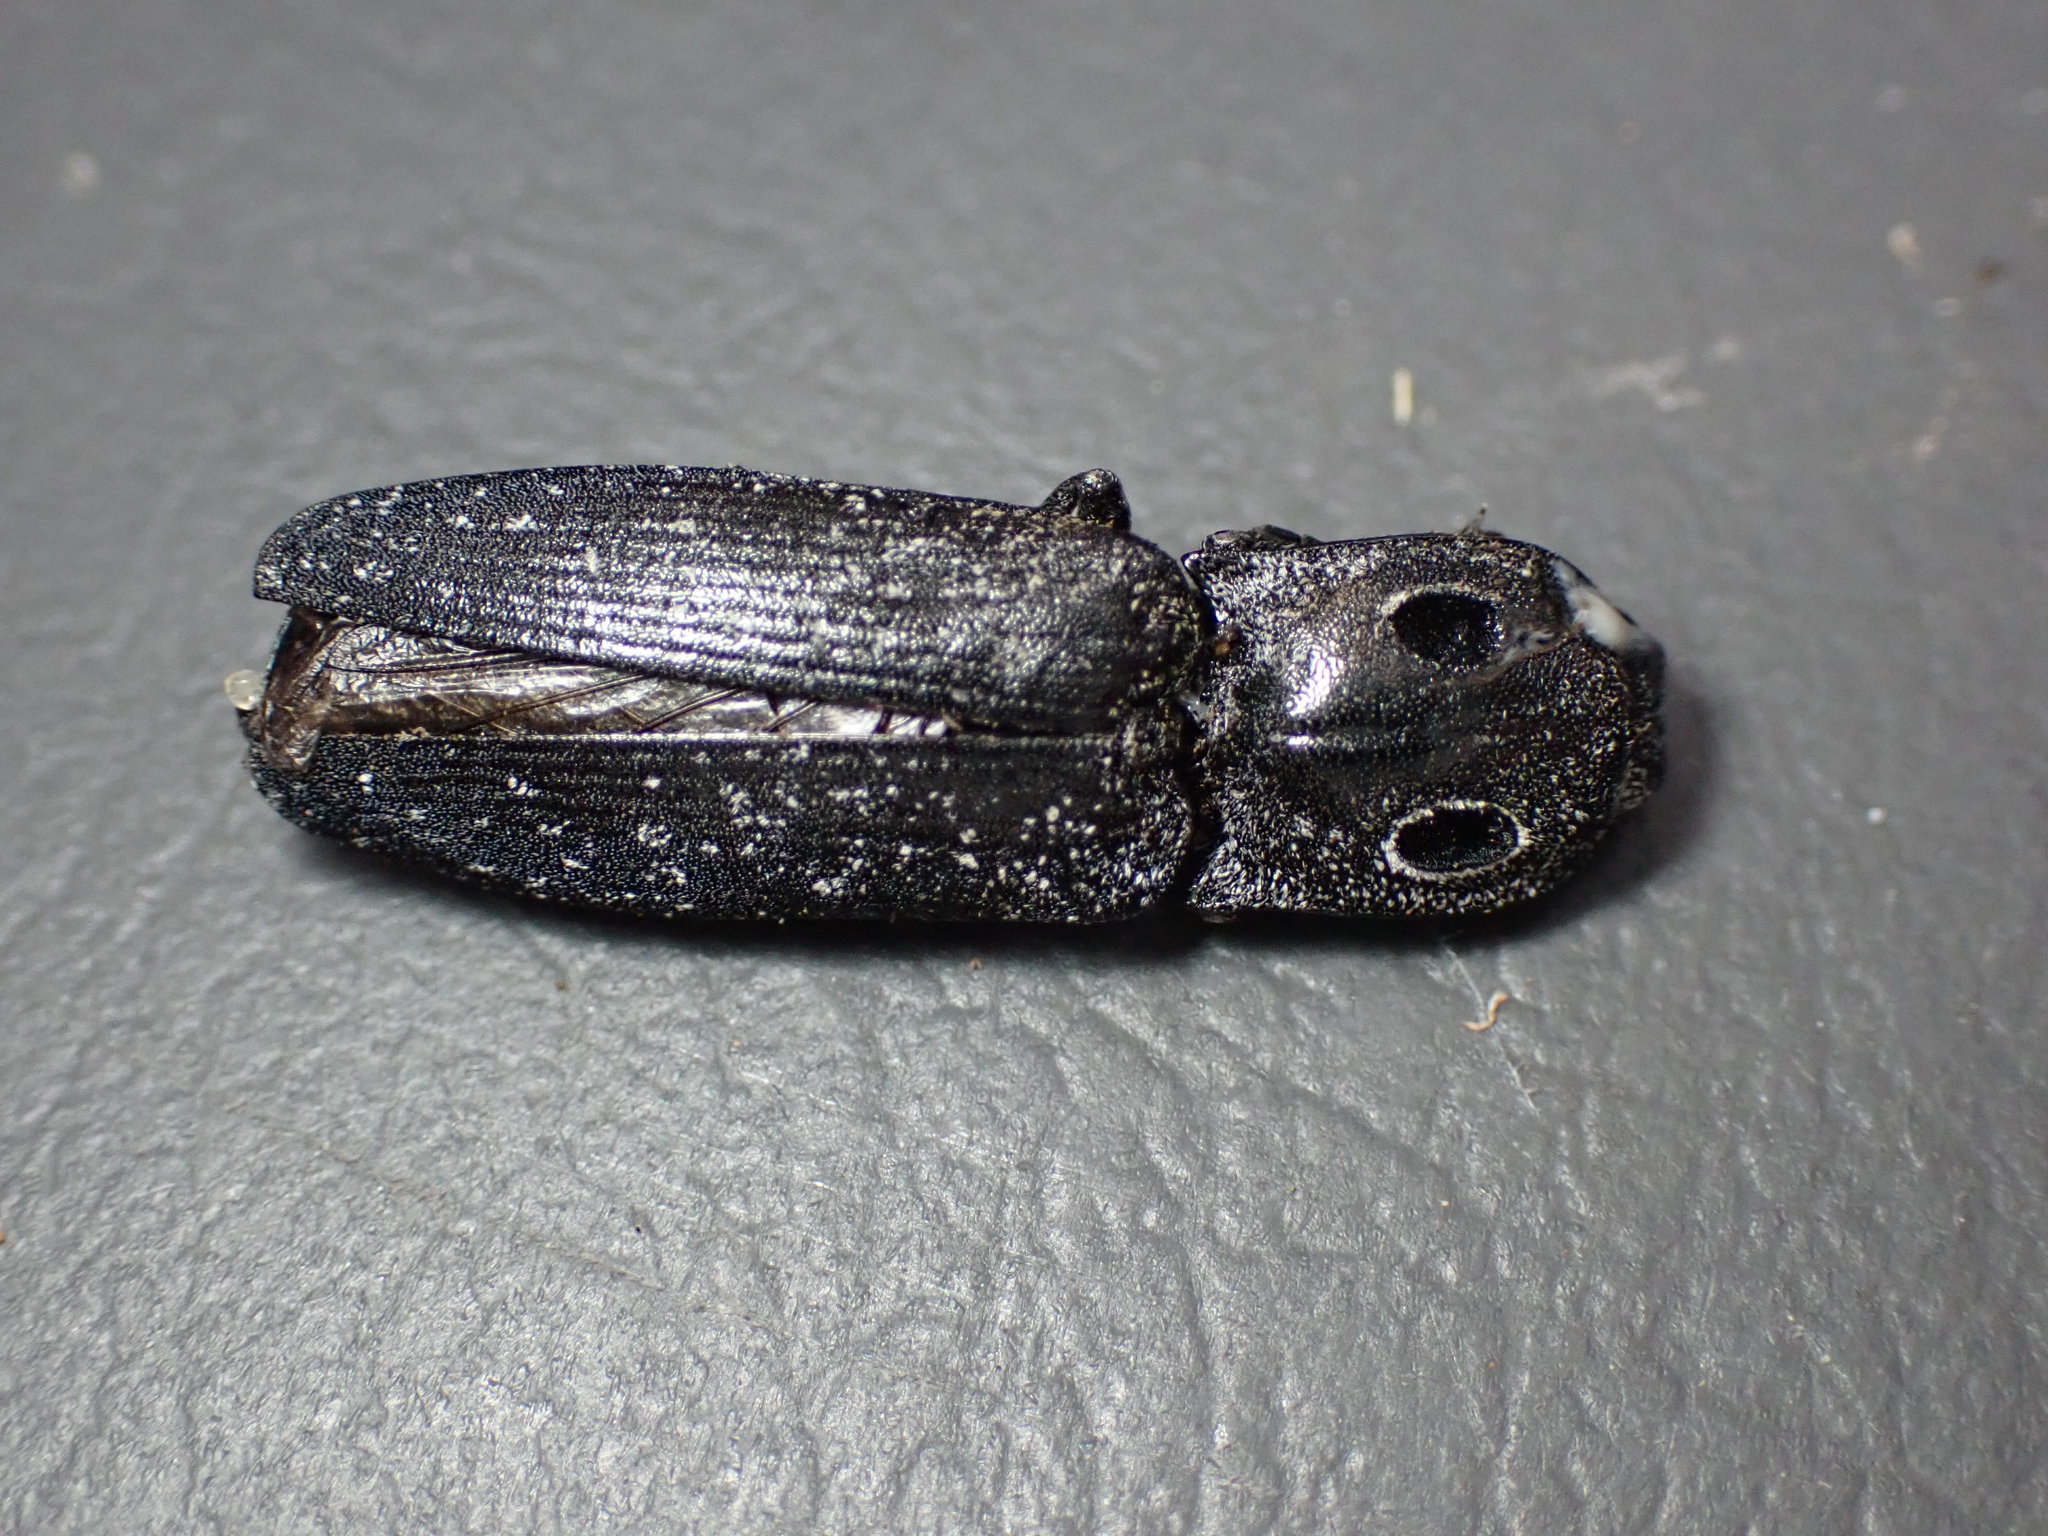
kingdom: Animalia
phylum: Arthropoda
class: Insecta
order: Coleoptera
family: Elateridae
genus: Alaus
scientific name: Alaus melanops
